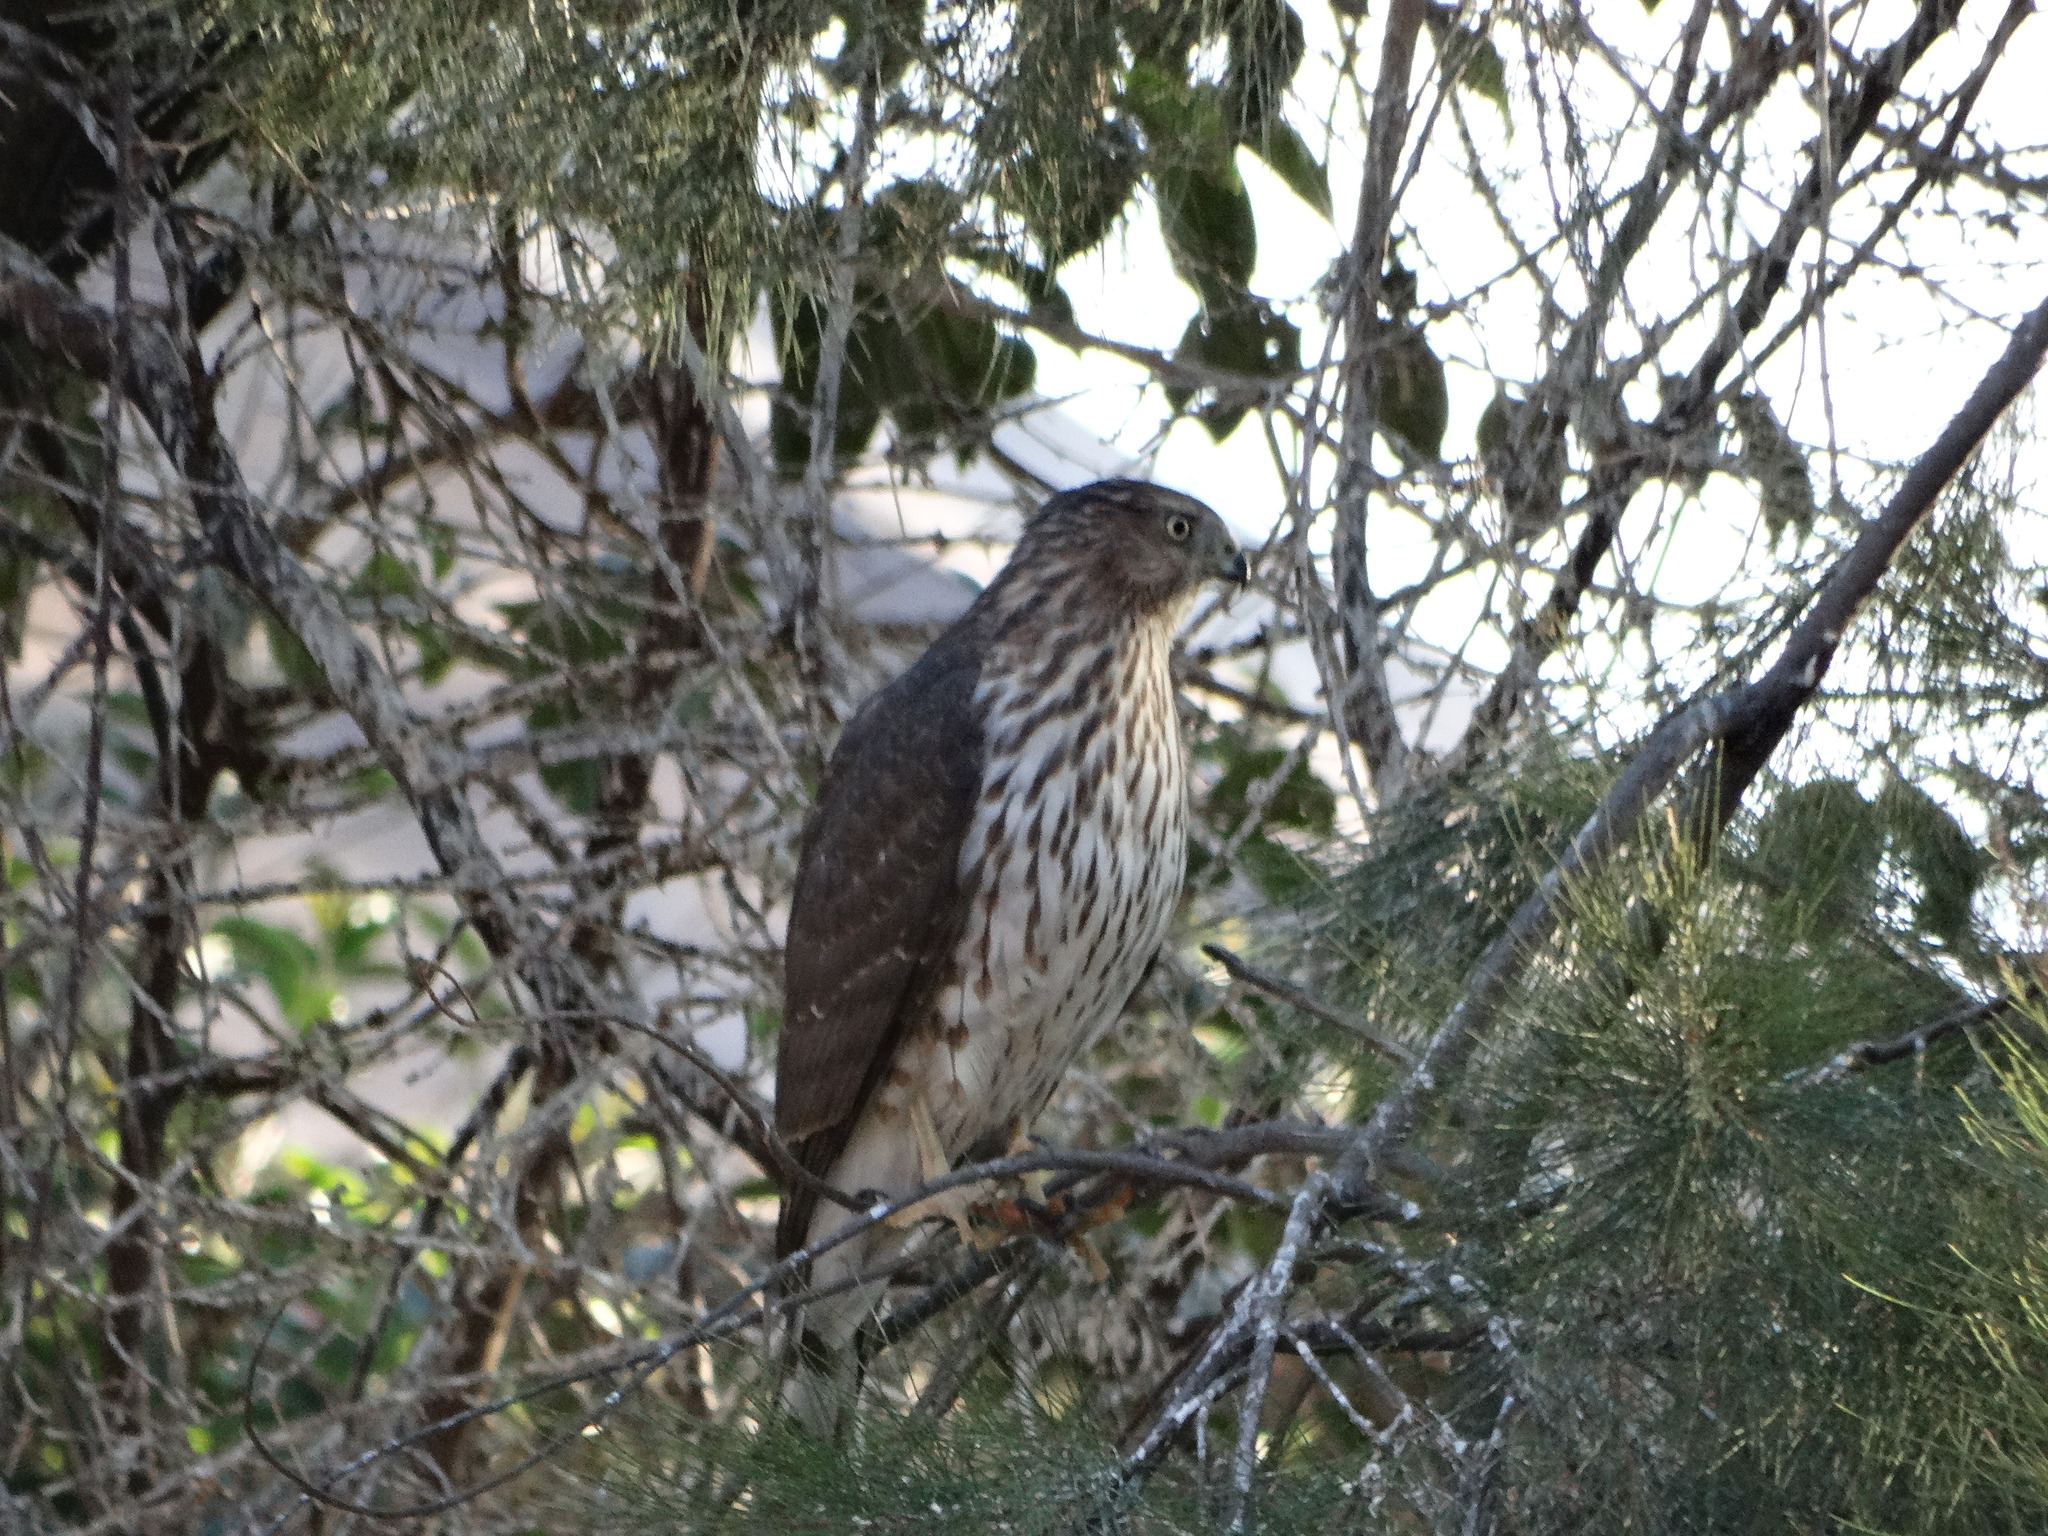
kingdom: Animalia
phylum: Chordata
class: Aves
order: Accipitriformes
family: Accipitridae
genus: Accipiter
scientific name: Accipiter cooperii
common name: Cooper's hawk
